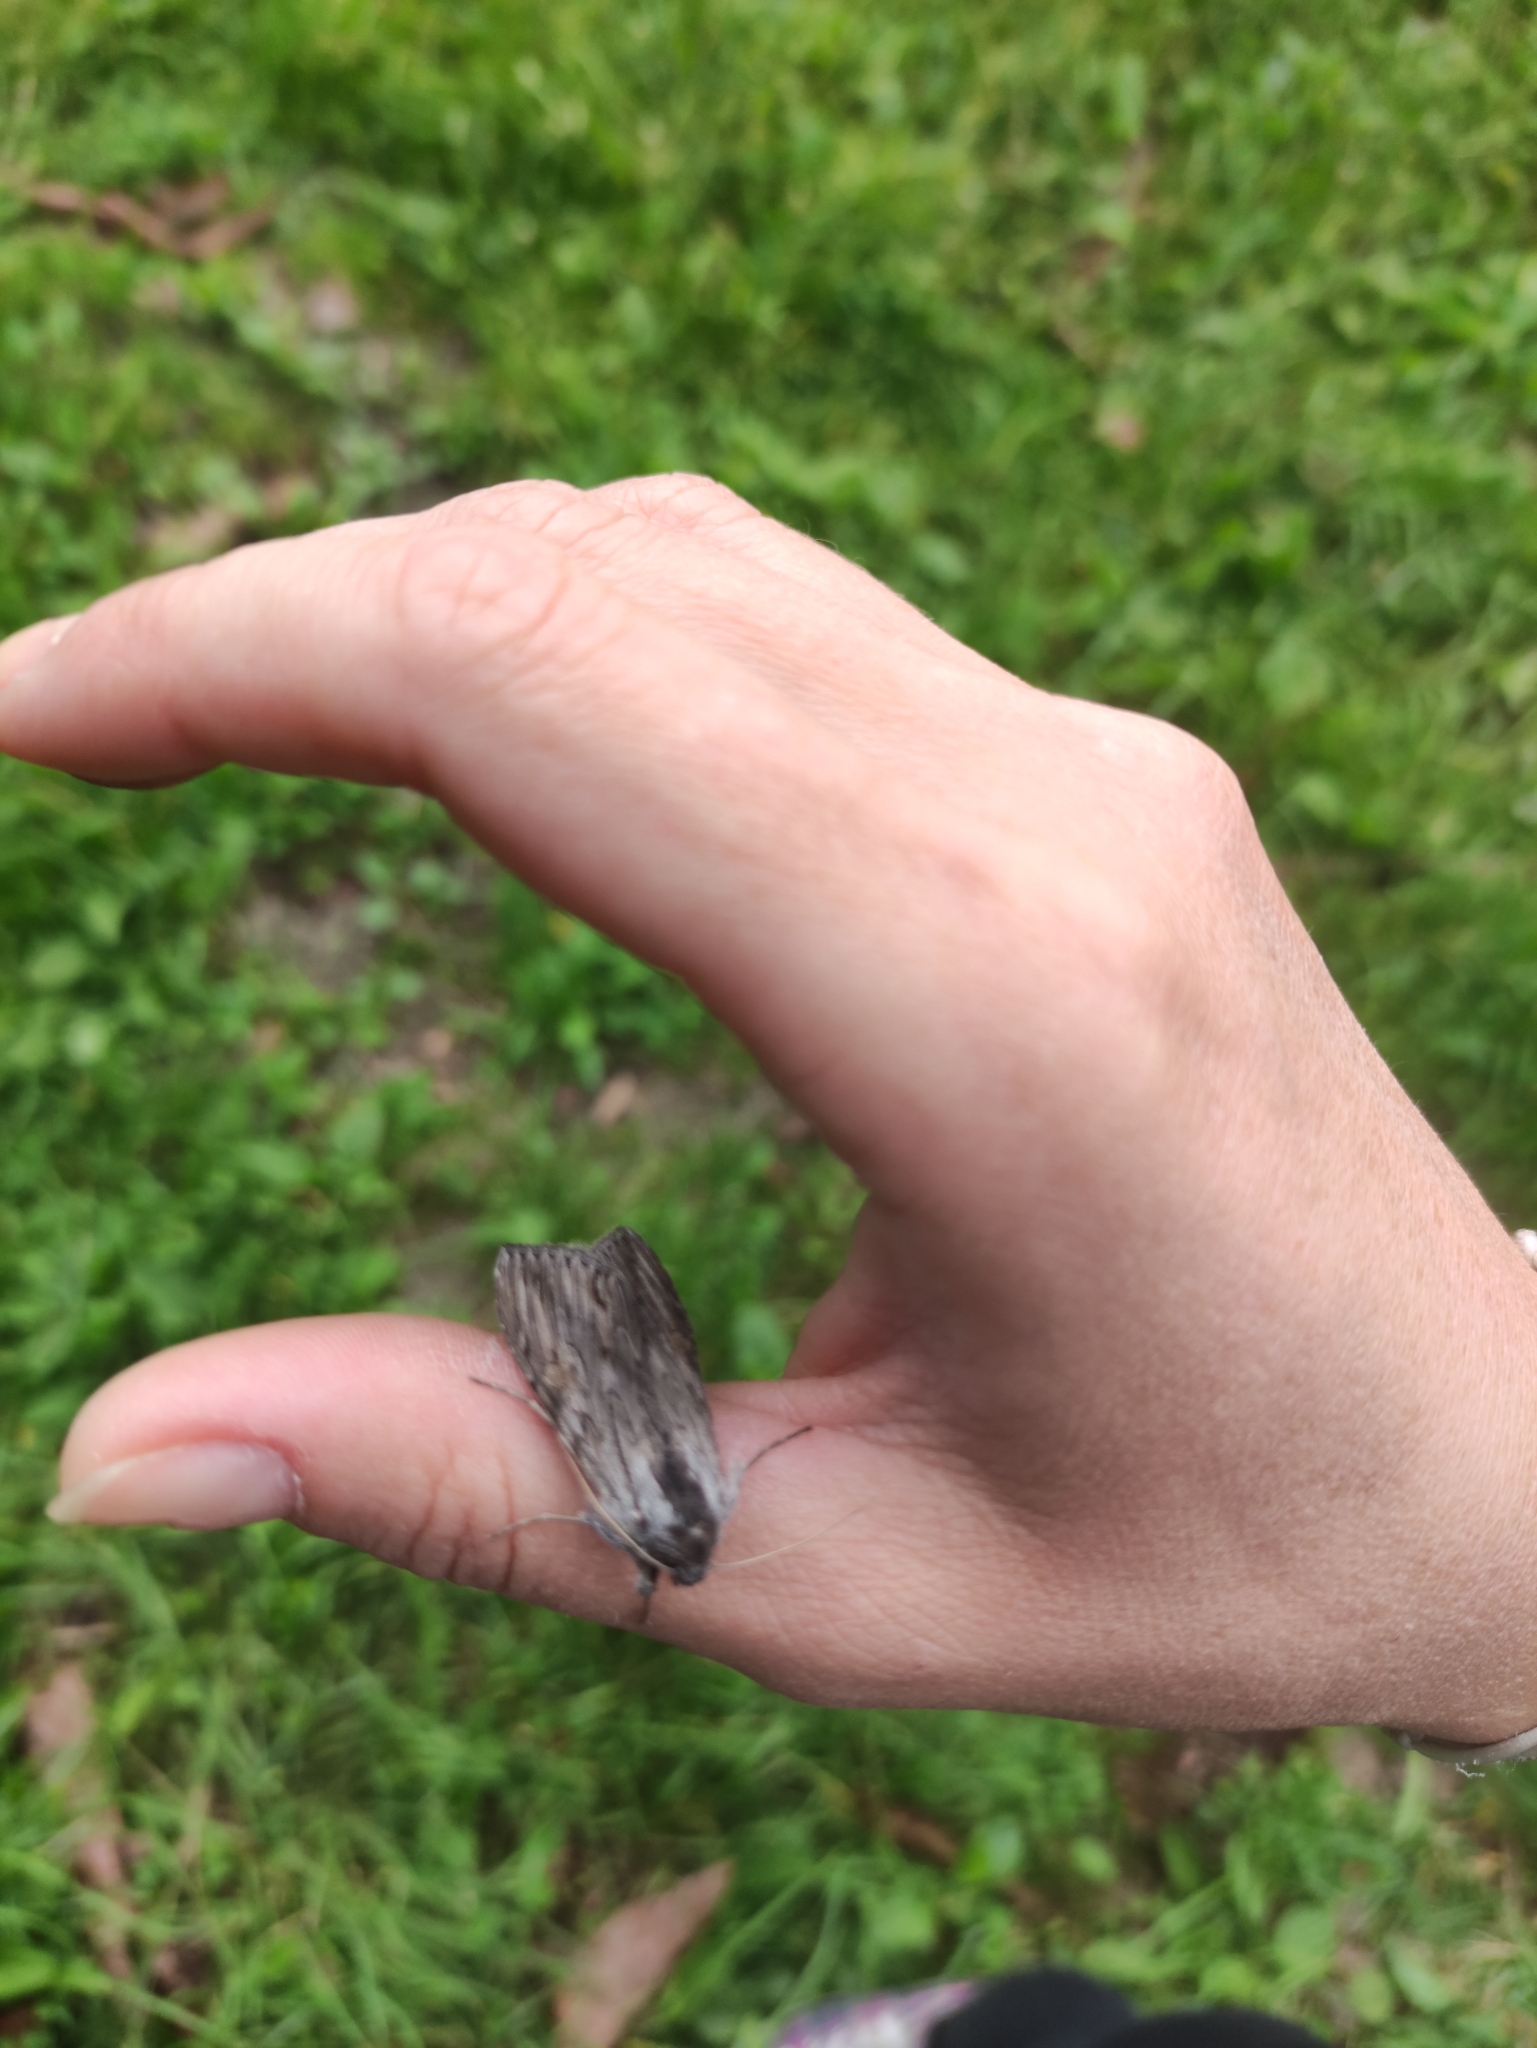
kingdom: Animalia
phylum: Arthropoda
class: Insecta
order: Lepidoptera
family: Noctuidae
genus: Cucullia
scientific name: Cucullia lucifuga
